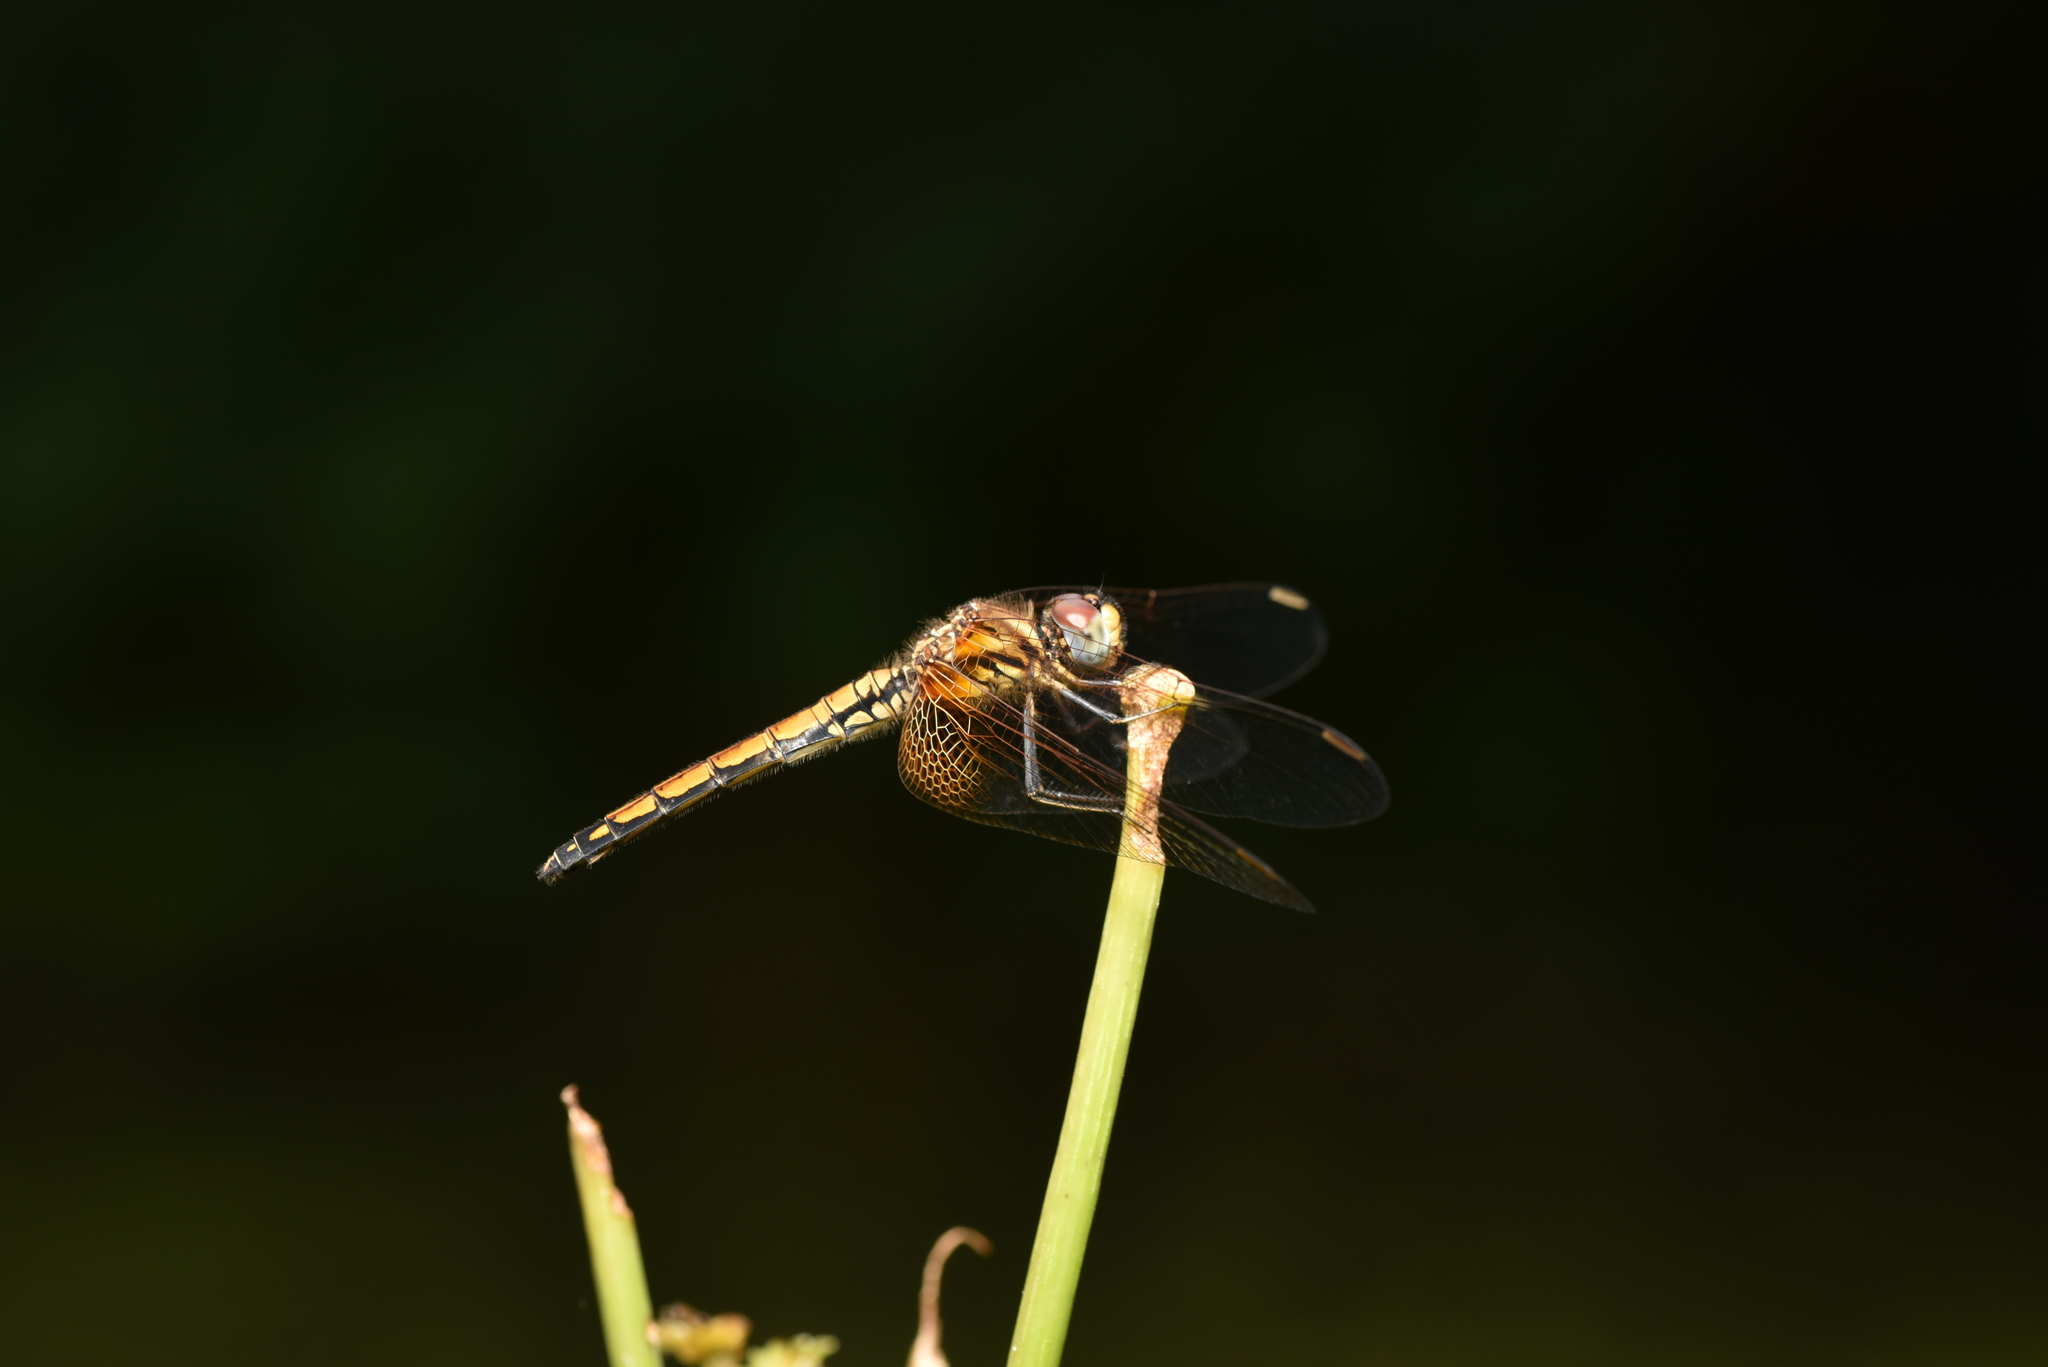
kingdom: Animalia
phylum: Arthropoda
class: Insecta
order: Odonata
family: Libellulidae
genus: Trithemis
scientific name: Trithemis aurora
